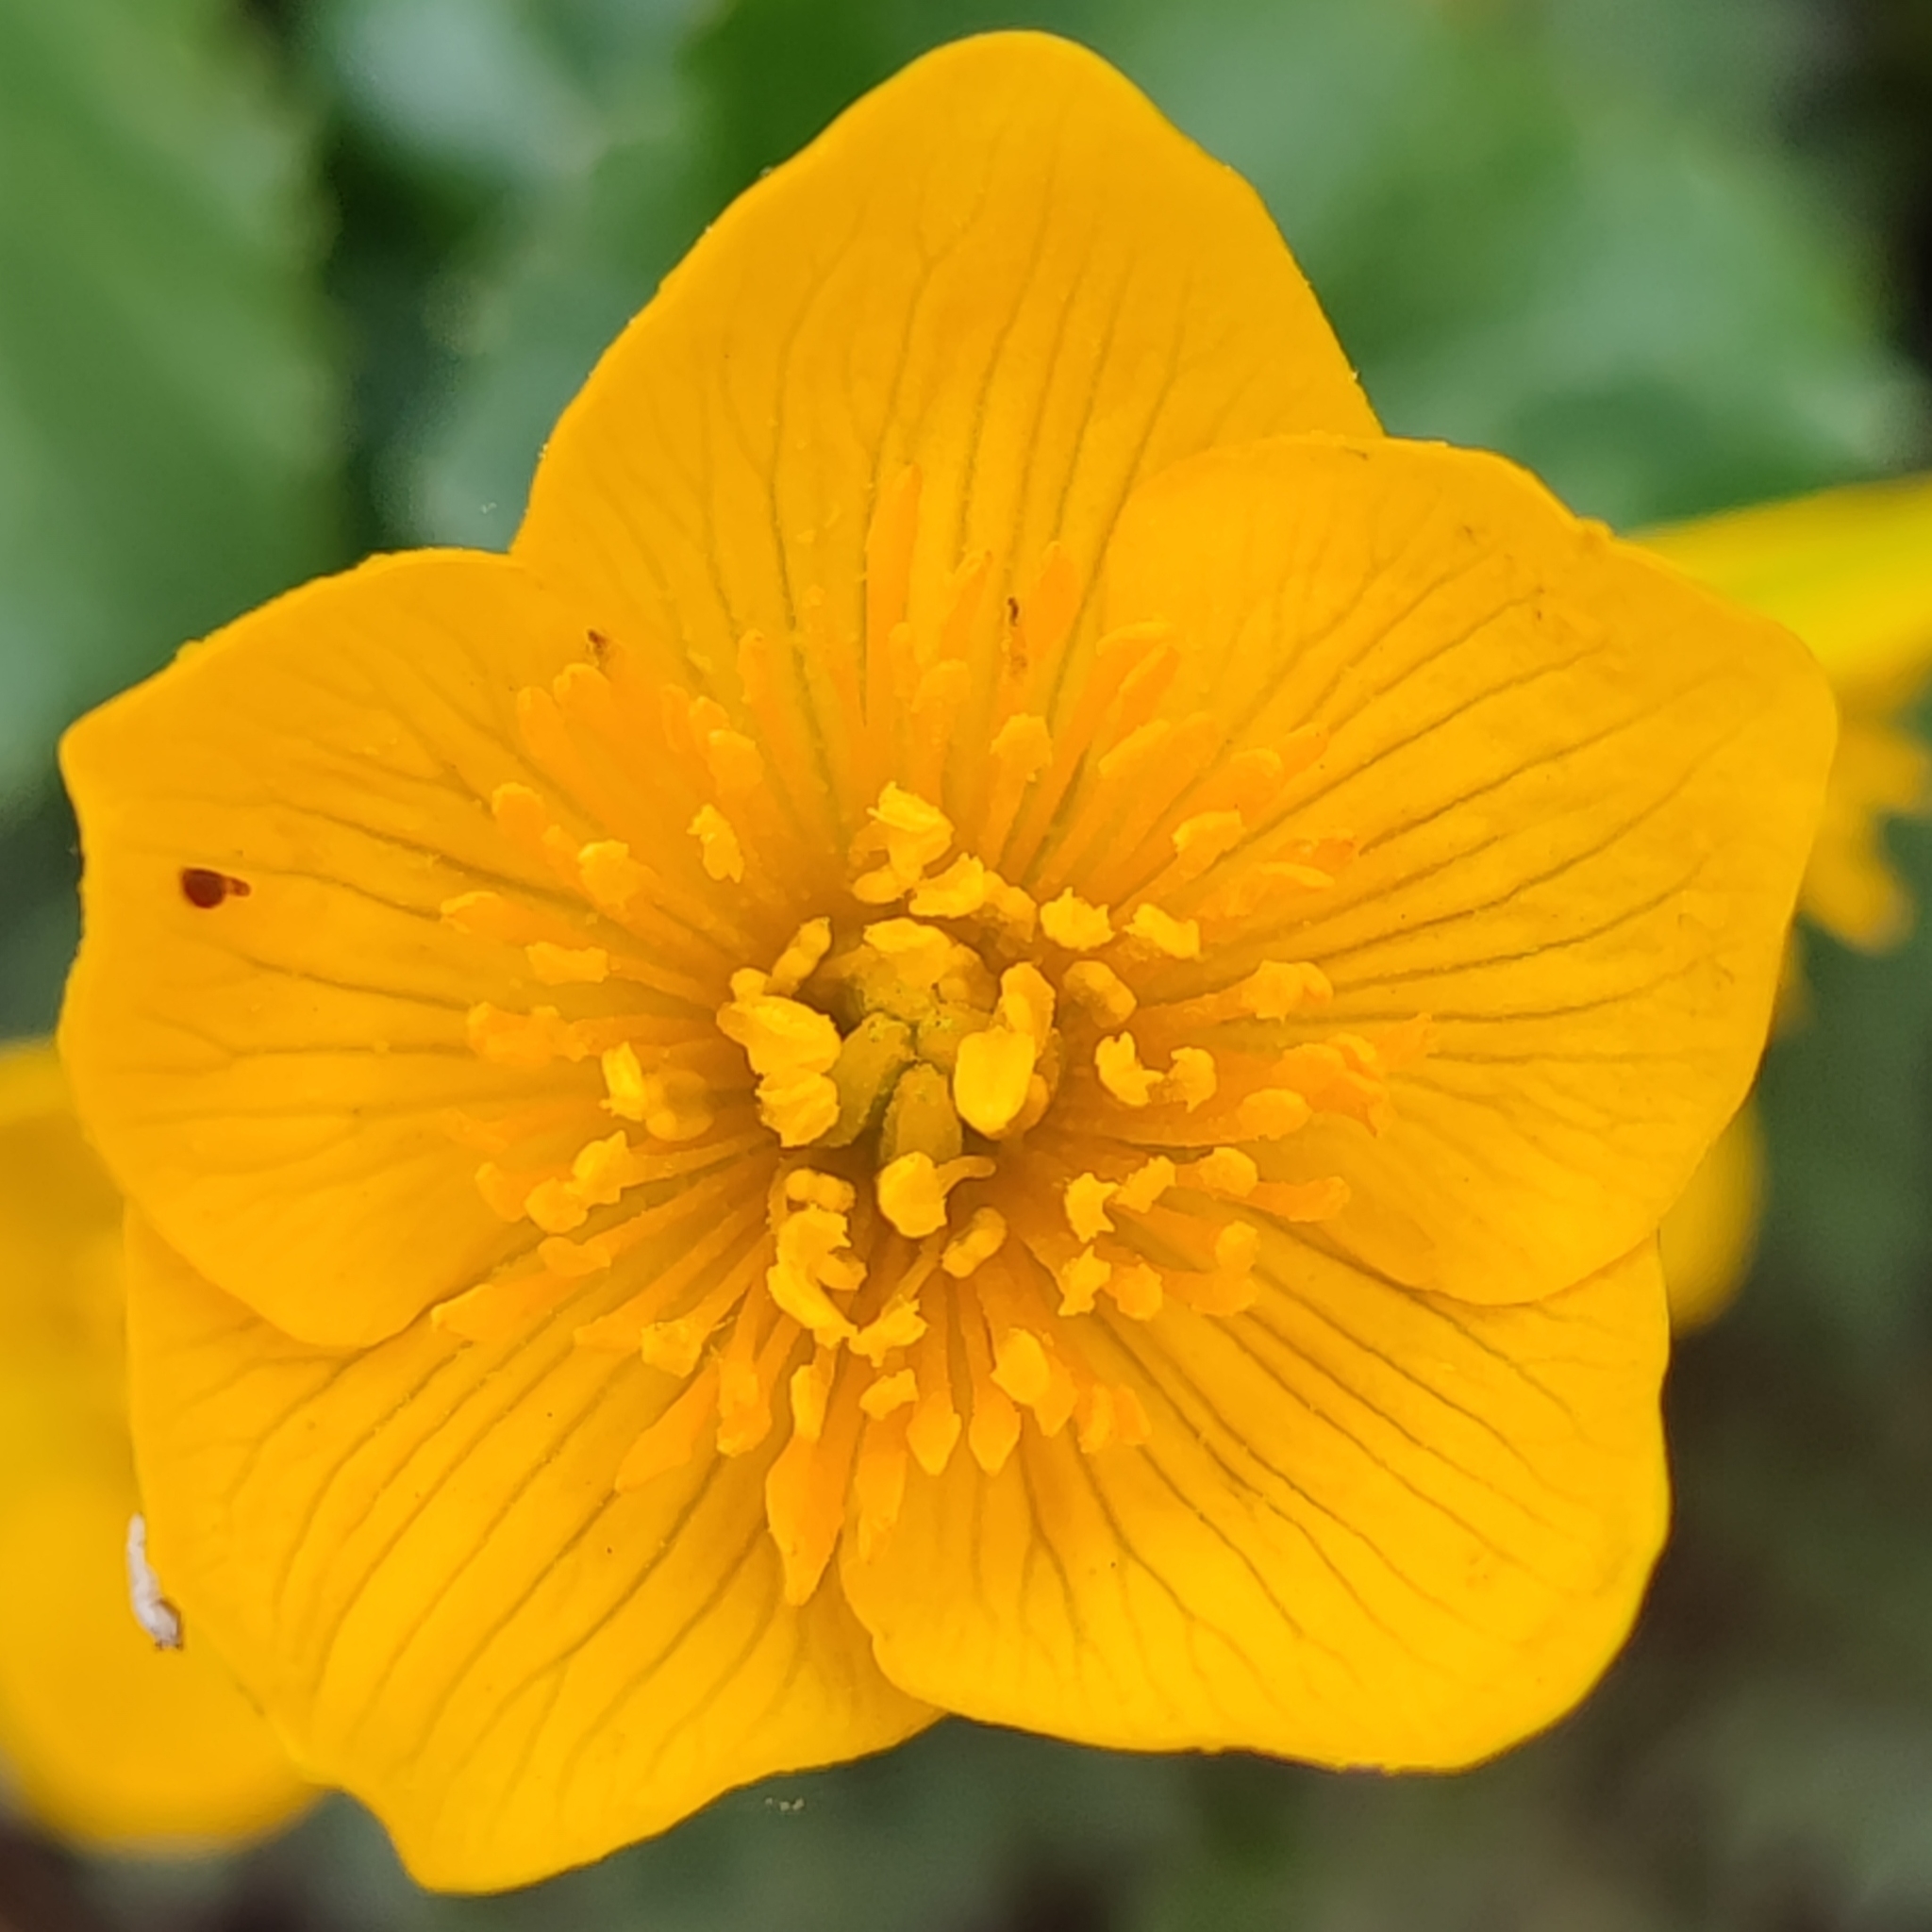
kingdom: Plantae
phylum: Tracheophyta
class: Magnoliopsida
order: Ranunculales
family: Ranunculaceae
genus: Caltha
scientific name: Caltha palustris
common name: Marsh marigold
